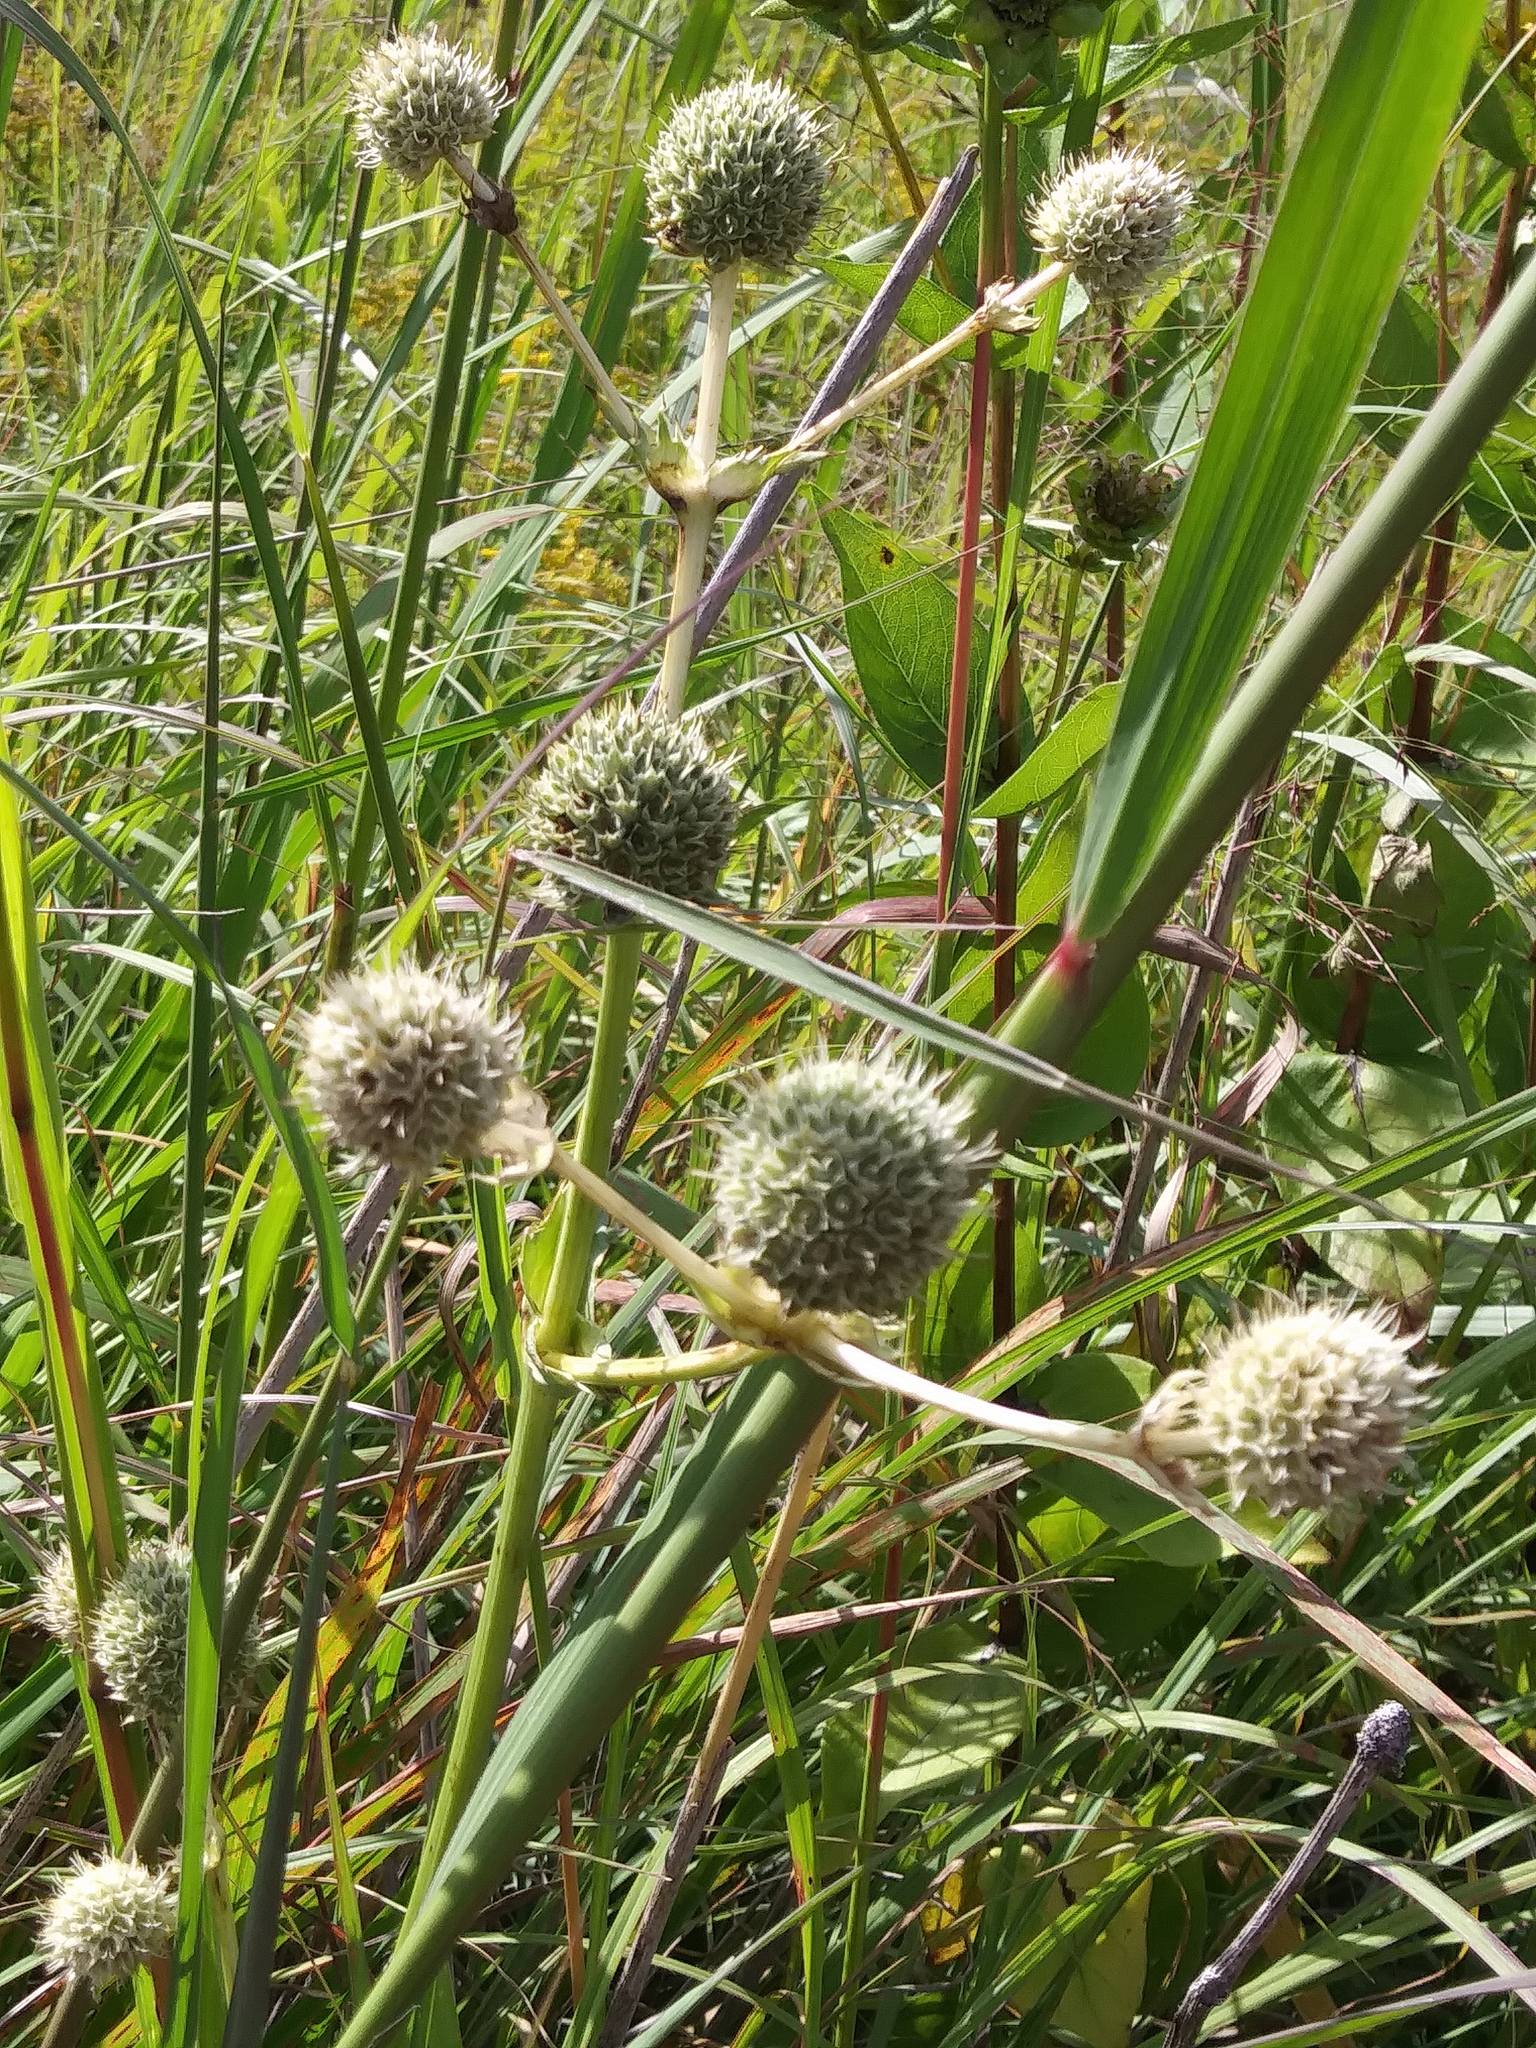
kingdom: Plantae
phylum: Tracheophyta
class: Magnoliopsida
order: Apiales
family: Apiaceae
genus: Eryngium
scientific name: Eryngium yuccifolium
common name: Button eryngo
